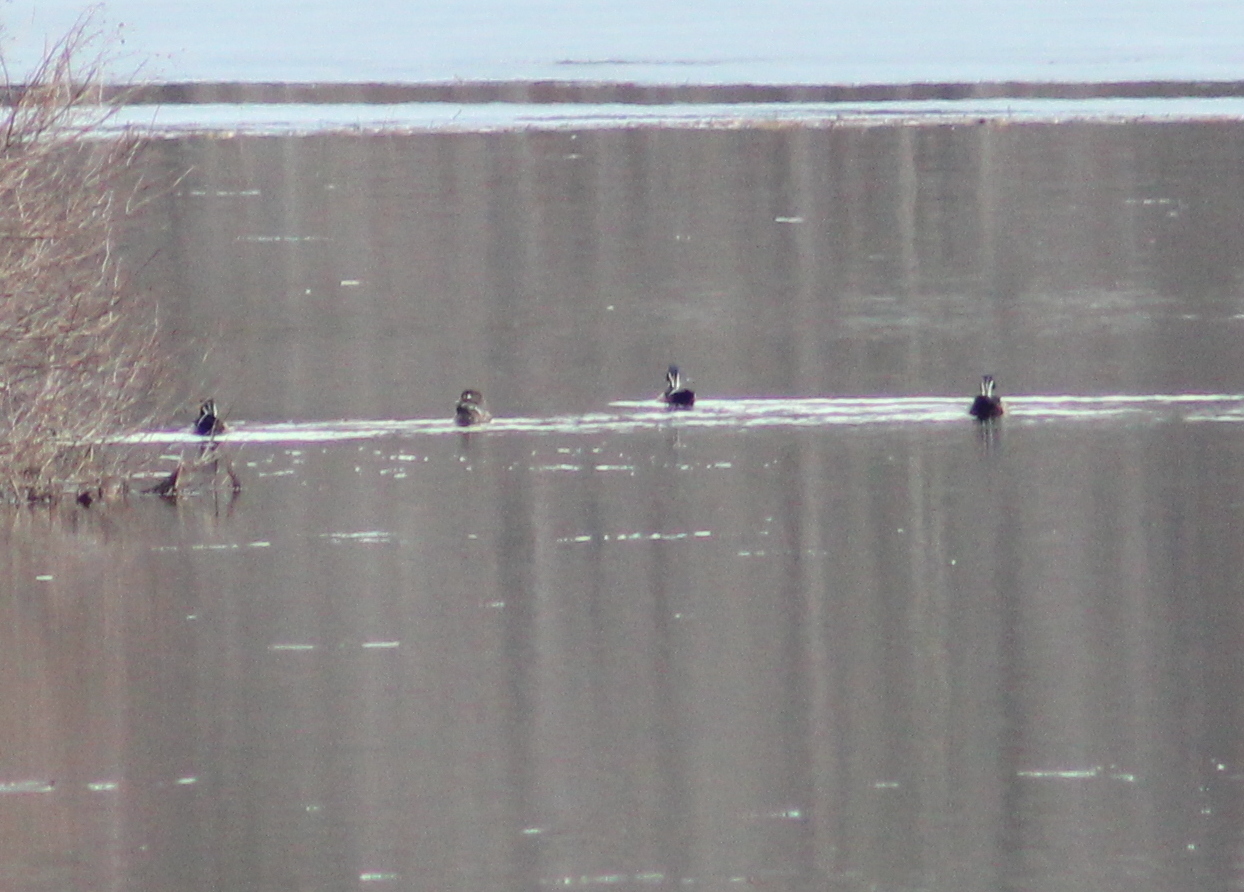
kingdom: Animalia
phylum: Chordata
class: Aves
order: Anseriformes
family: Anatidae
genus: Aix
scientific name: Aix sponsa
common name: Wood duck
